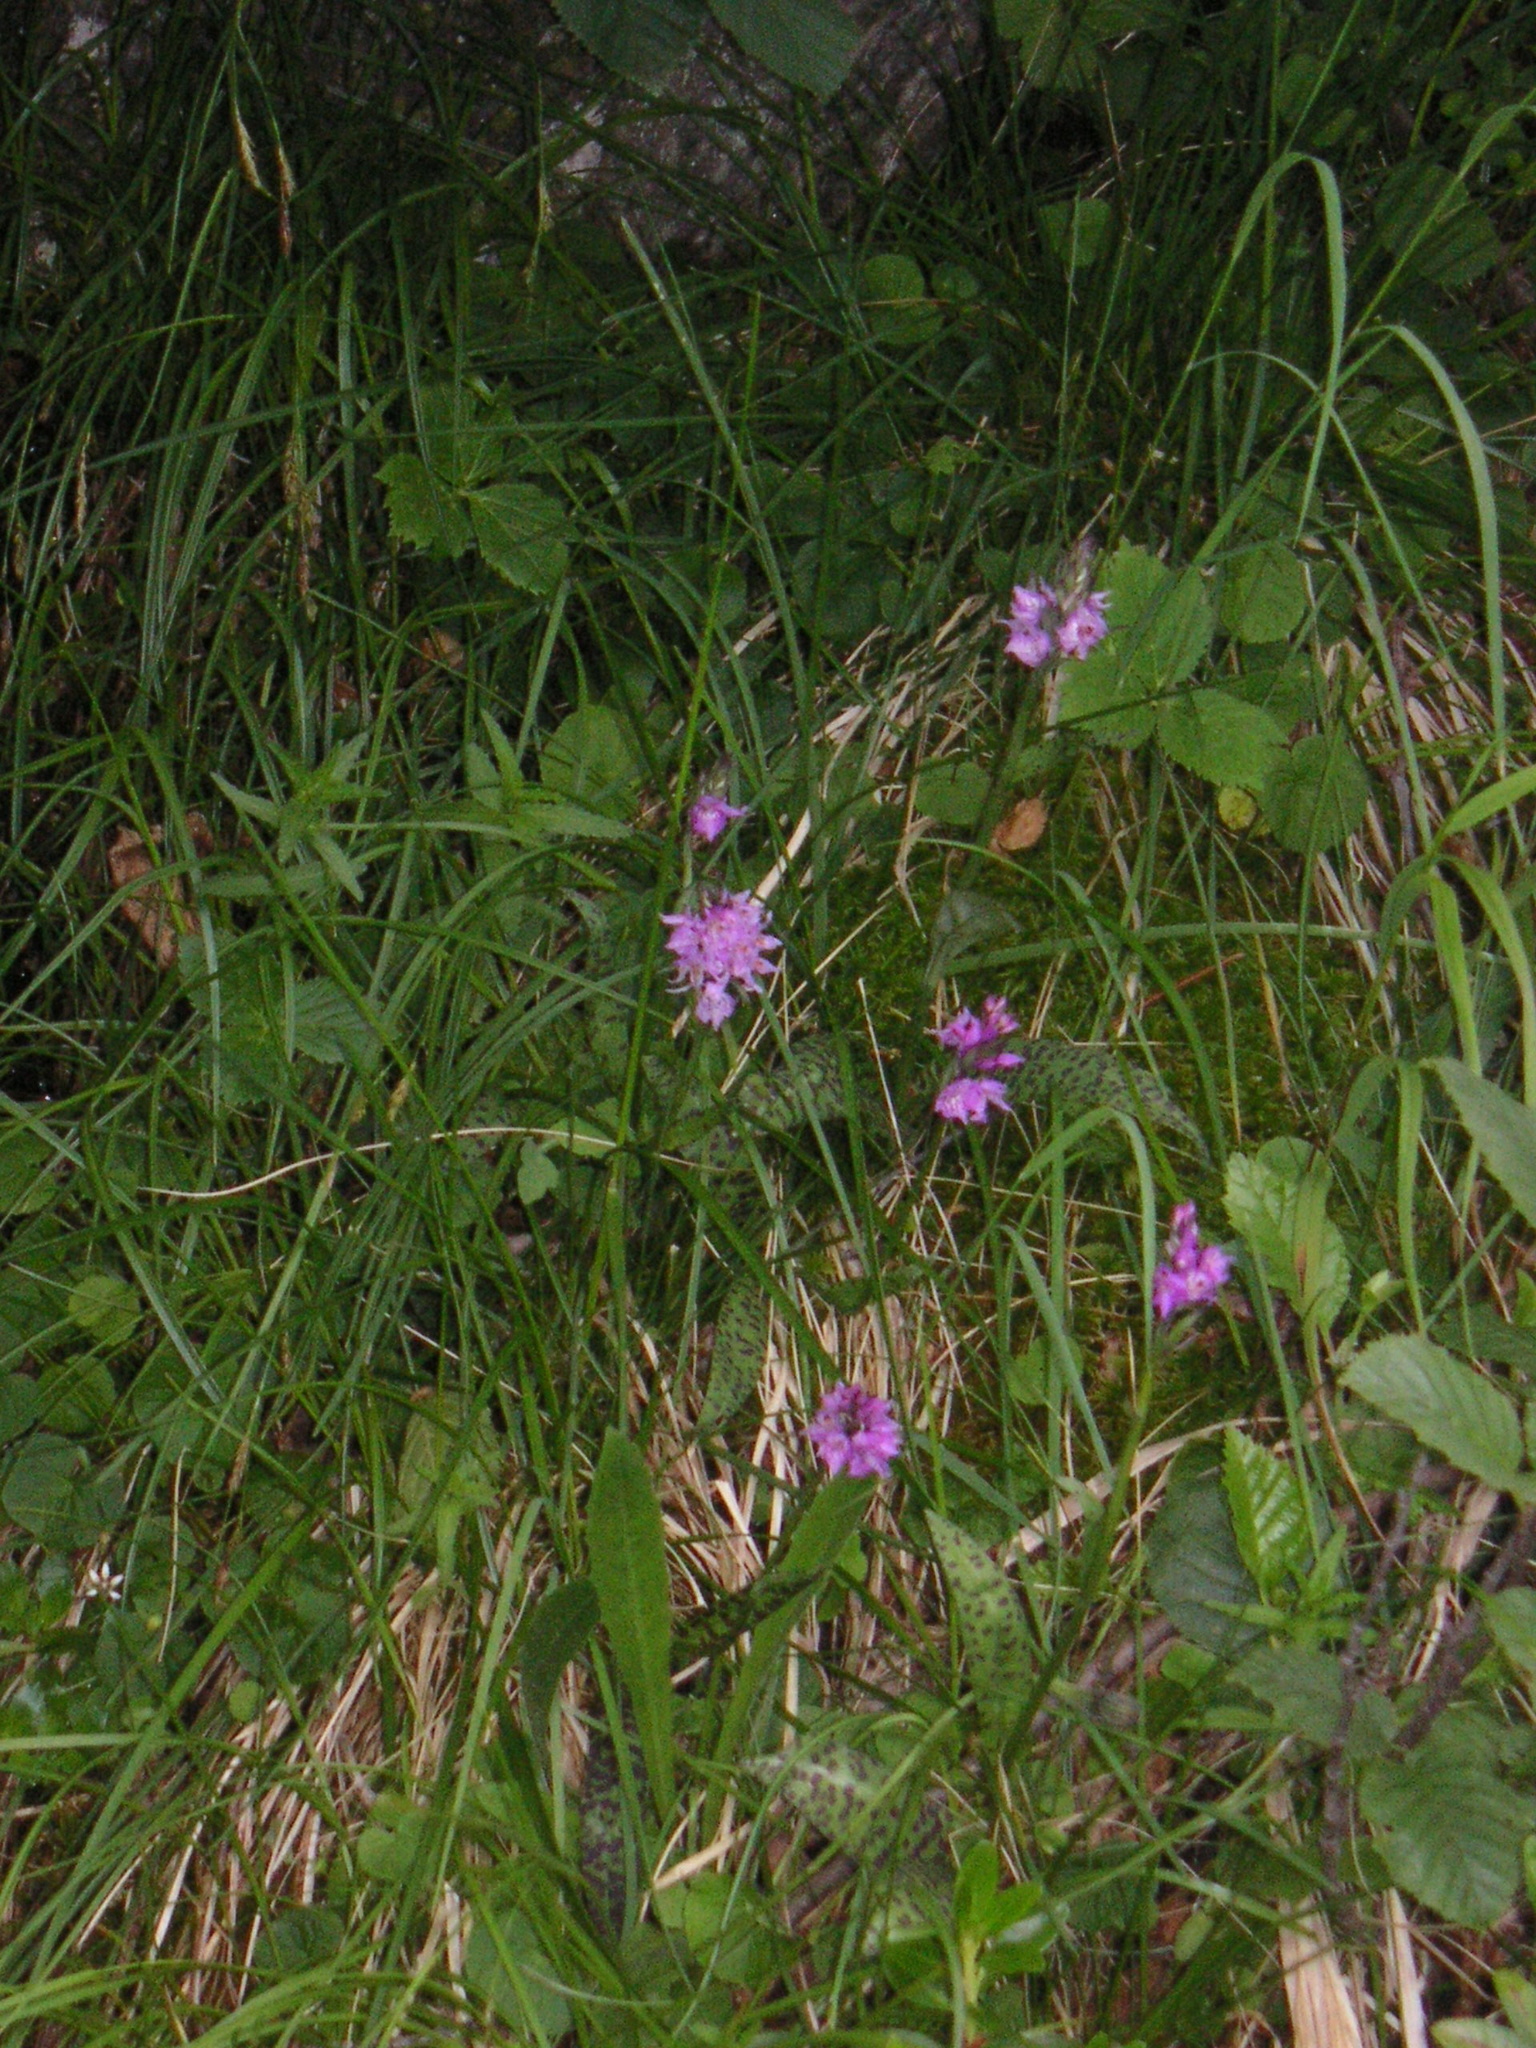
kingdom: Plantae
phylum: Tracheophyta
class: Liliopsida
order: Asparagales
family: Orchidaceae
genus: Dactylorhiza
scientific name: Dactylorhiza maculata
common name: Heath spotted-orchid
